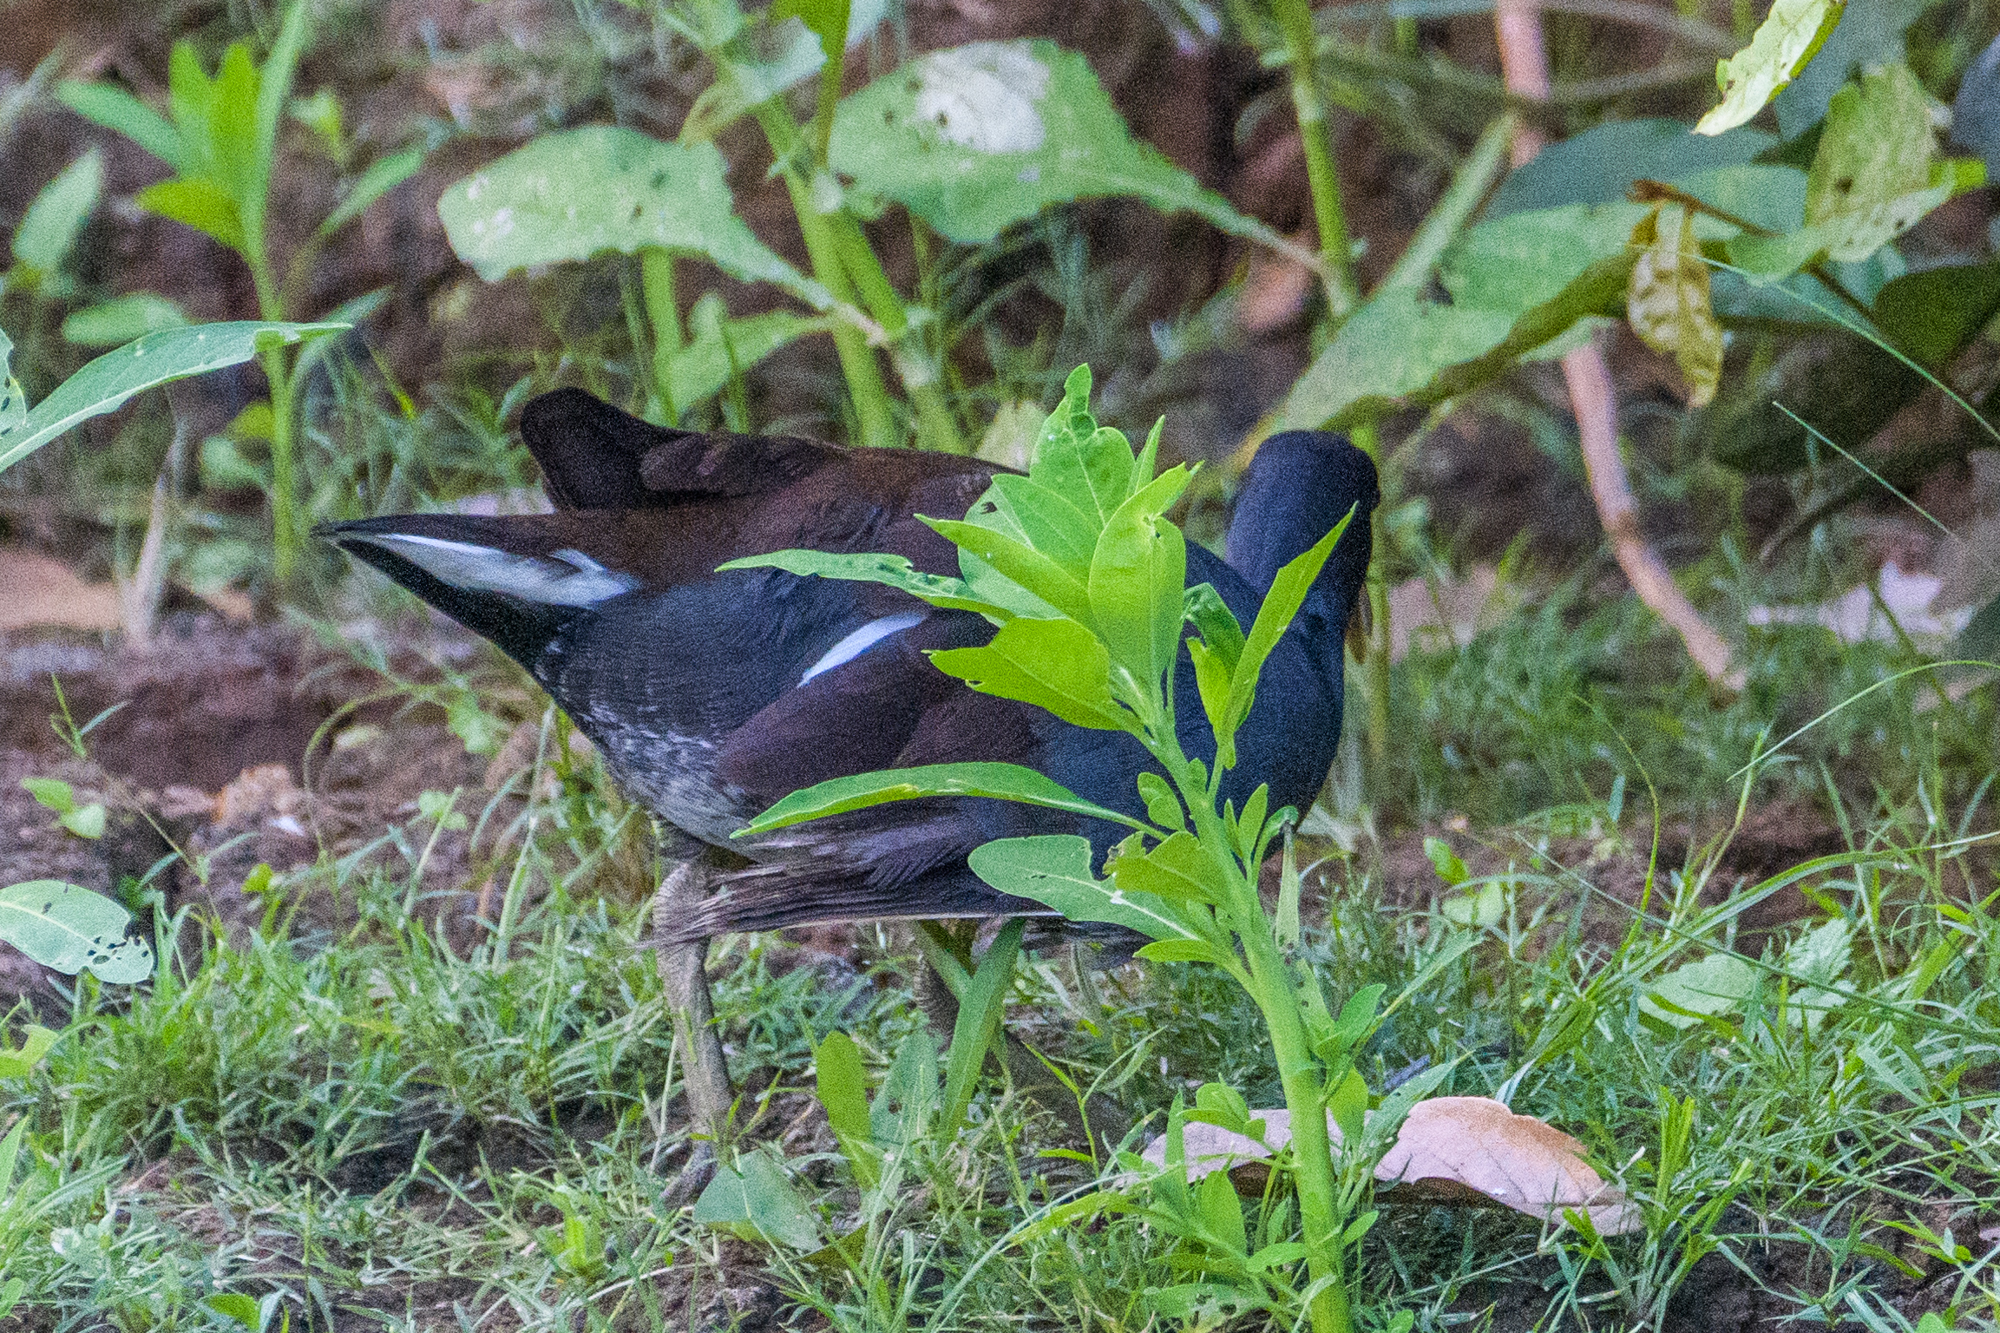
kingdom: Animalia
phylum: Chordata
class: Aves
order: Gruiformes
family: Rallidae
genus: Gallinula
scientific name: Gallinula chloropus
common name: Common moorhen
